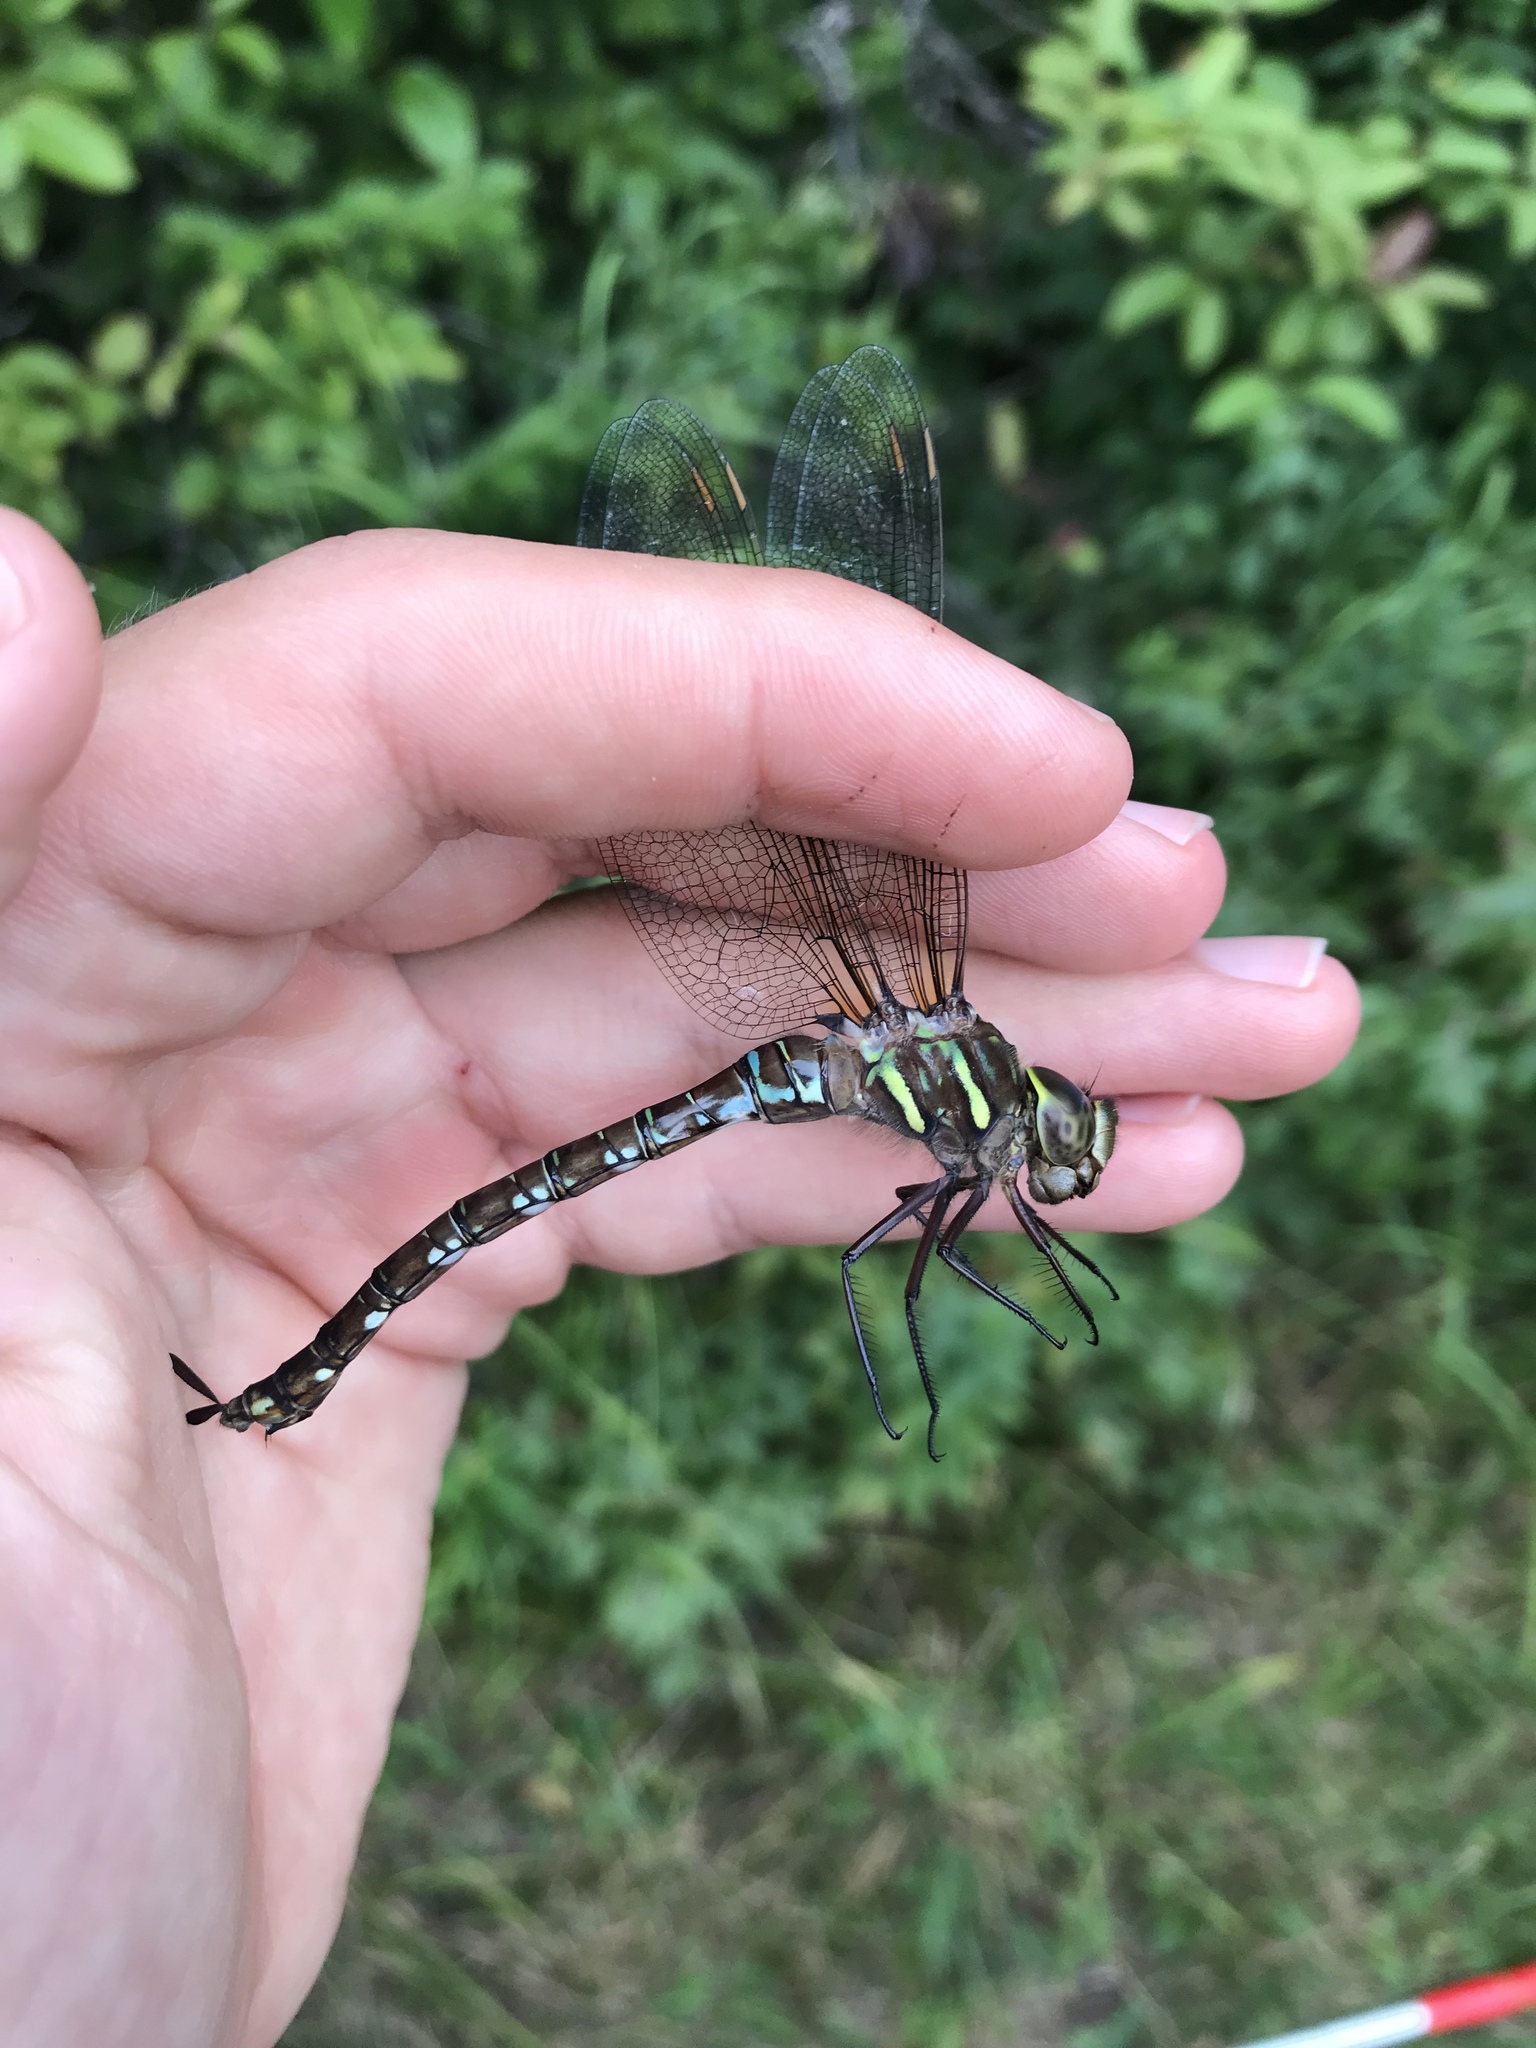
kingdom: Animalia
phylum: Arthropoda
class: Insecta
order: Odonata
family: Aeshnidae
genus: Aeshna
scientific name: Aeshna umbrosa
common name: Shadow darner
